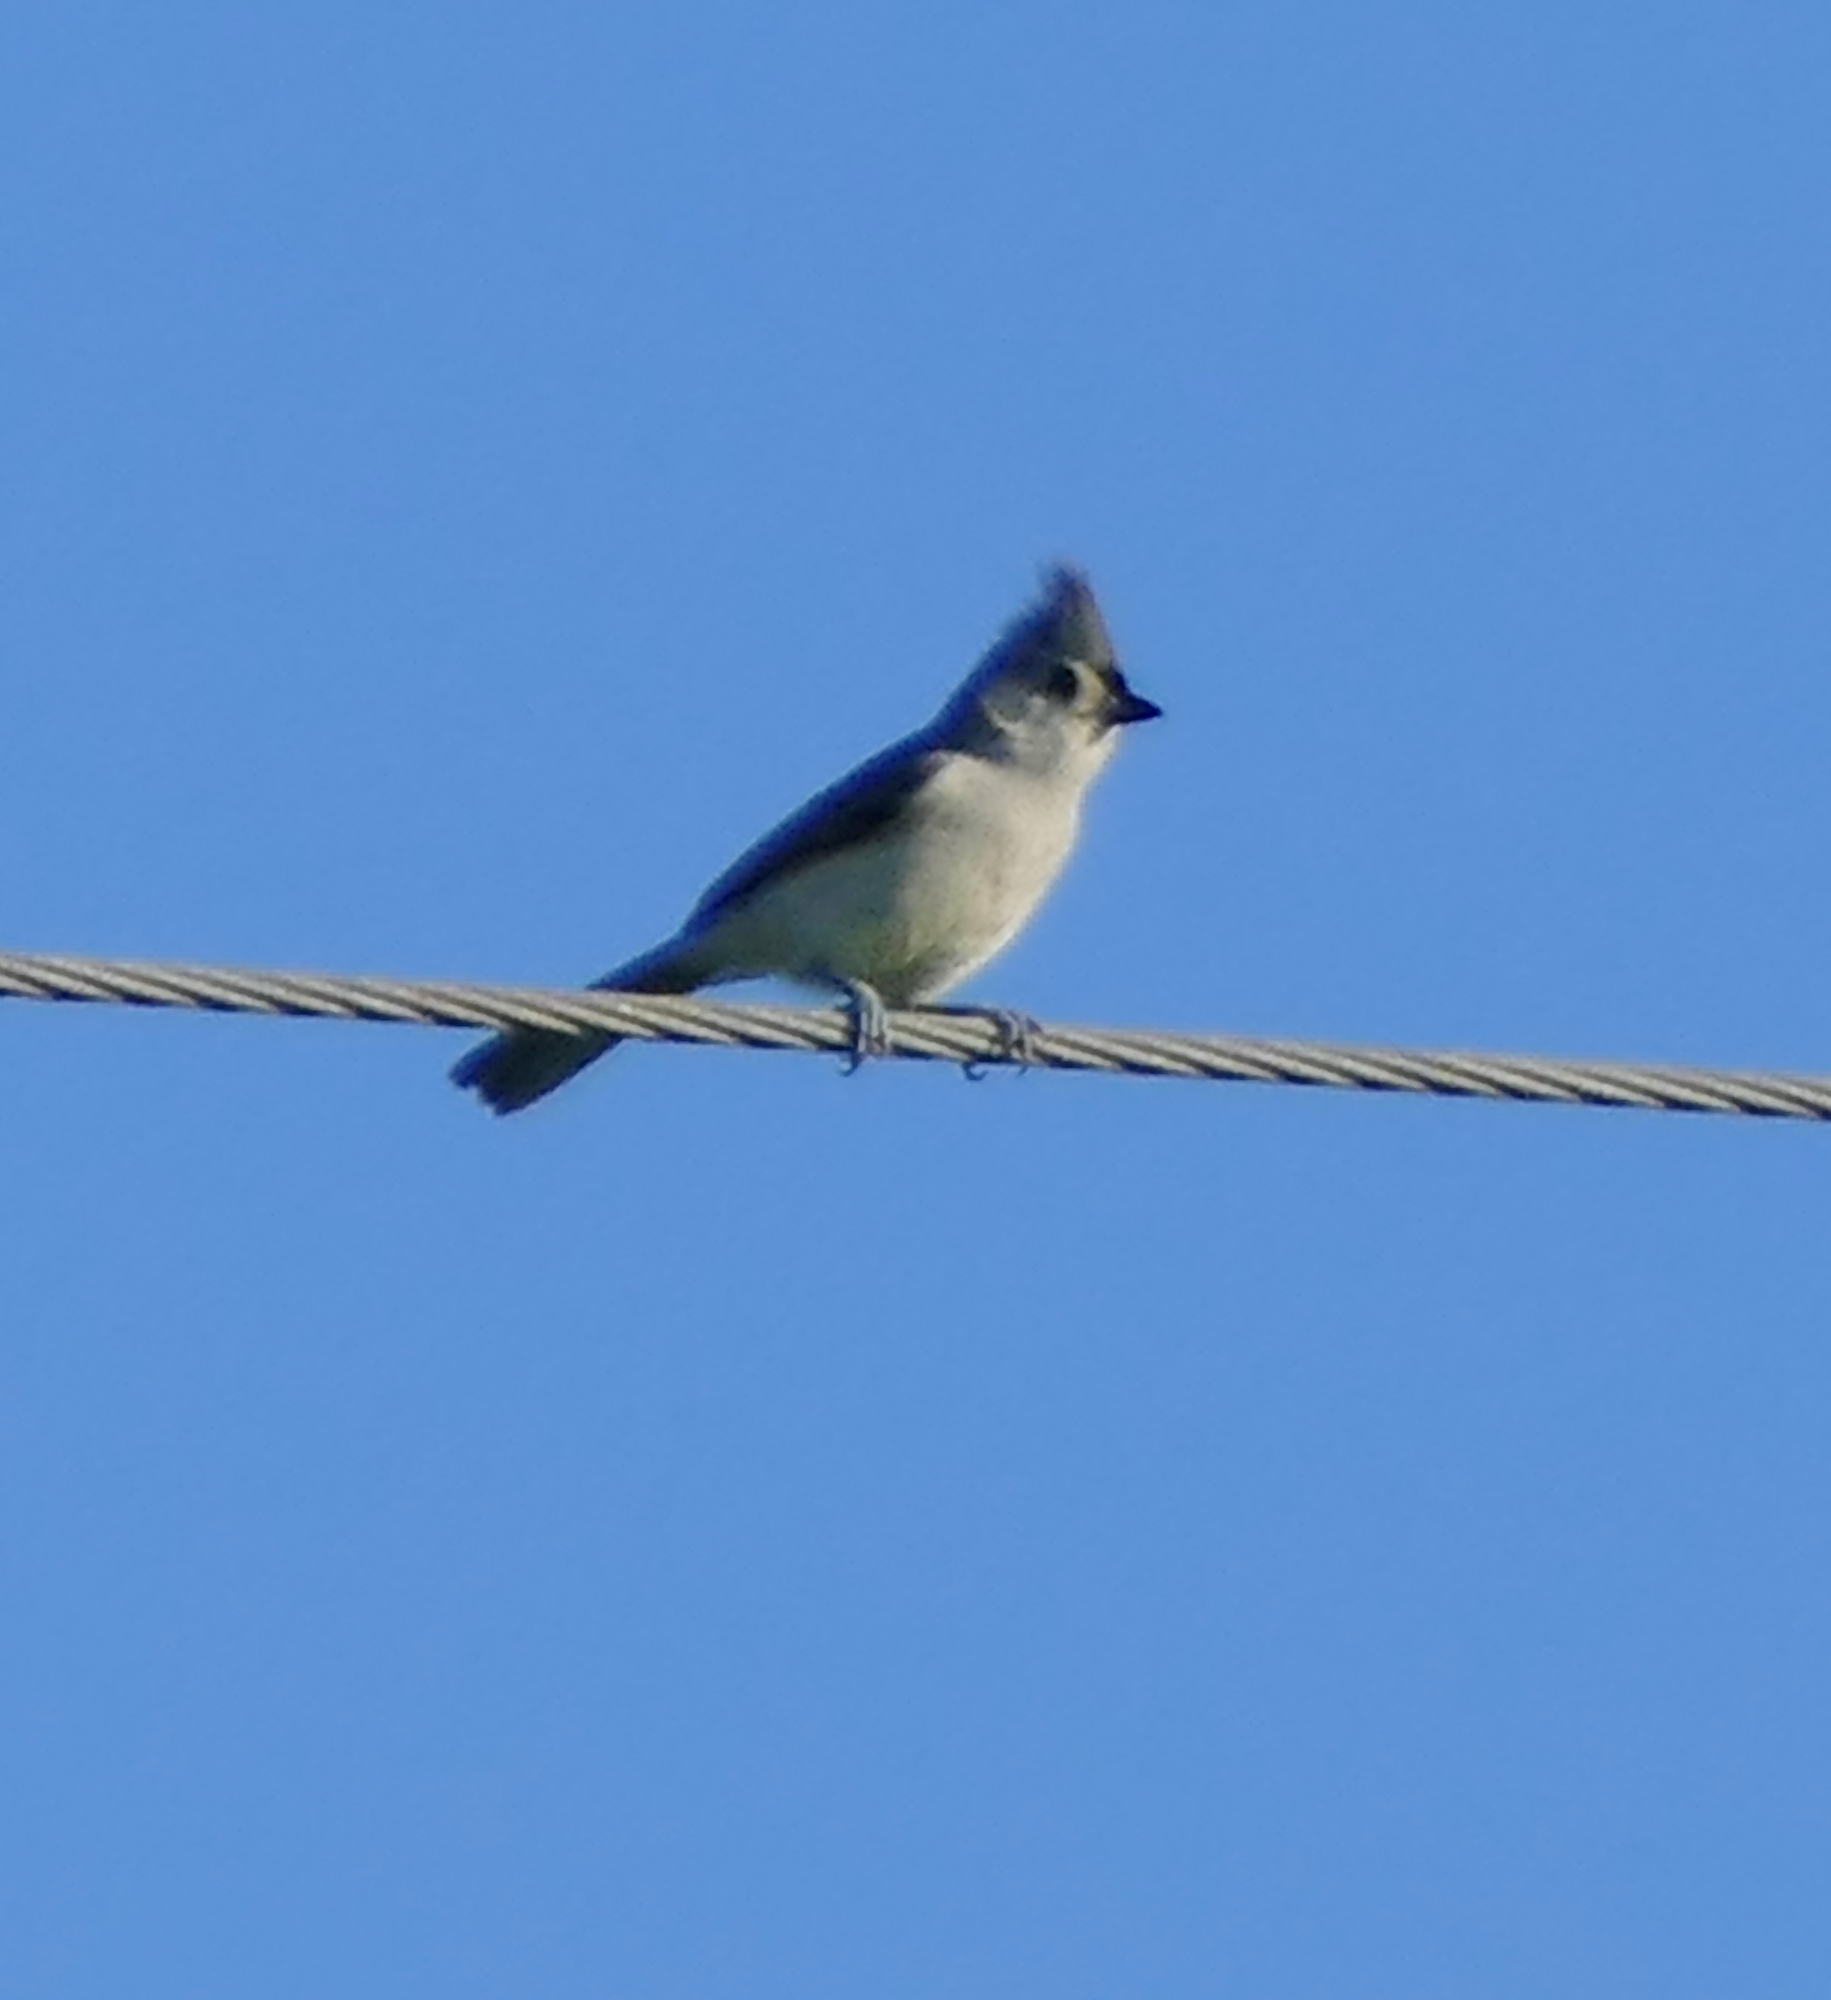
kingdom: Animalia
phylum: Chordata
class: Aves
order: Passeriformes
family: Paridae
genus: Baeolophus
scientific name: Baeolophus bicolor
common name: Tufted titmouse
